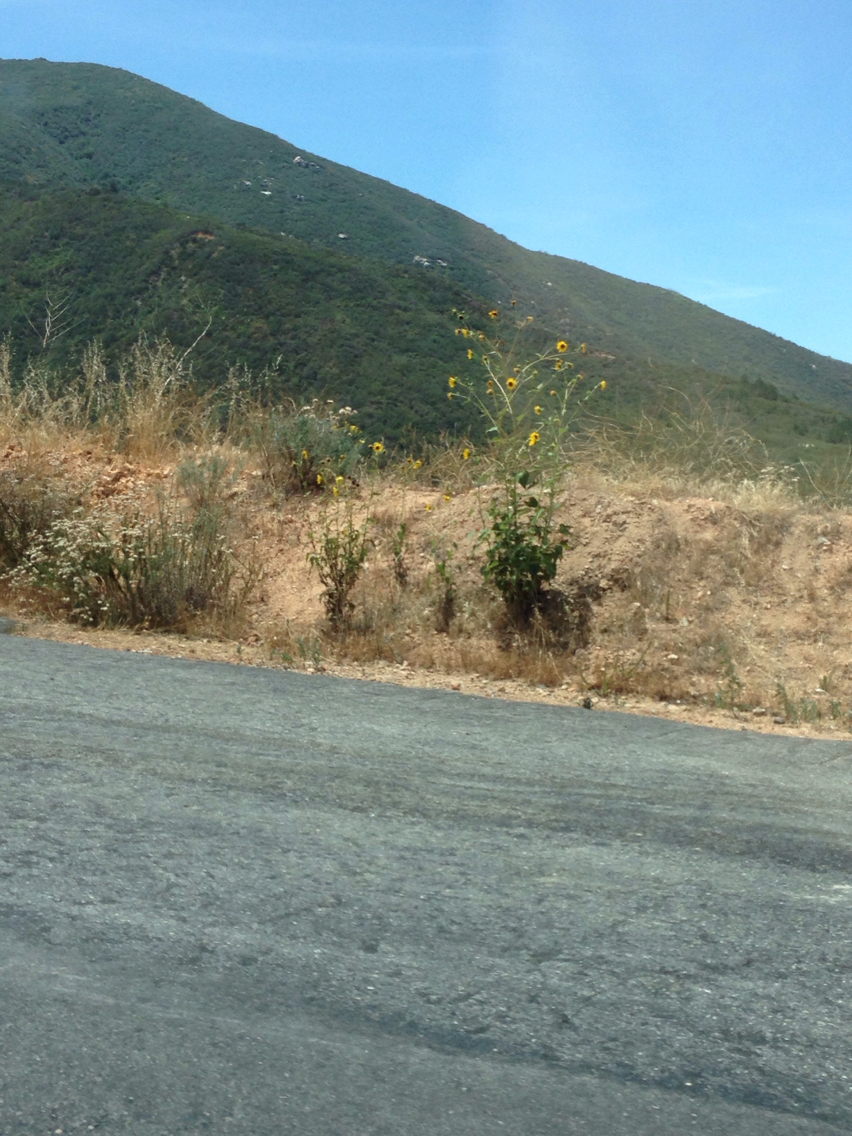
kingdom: Plantae
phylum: Tracheophyta
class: Magnoliopsida
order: Asterales
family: Asteraceae
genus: Helianthus
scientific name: Helianthus annuus
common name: Sunflower
